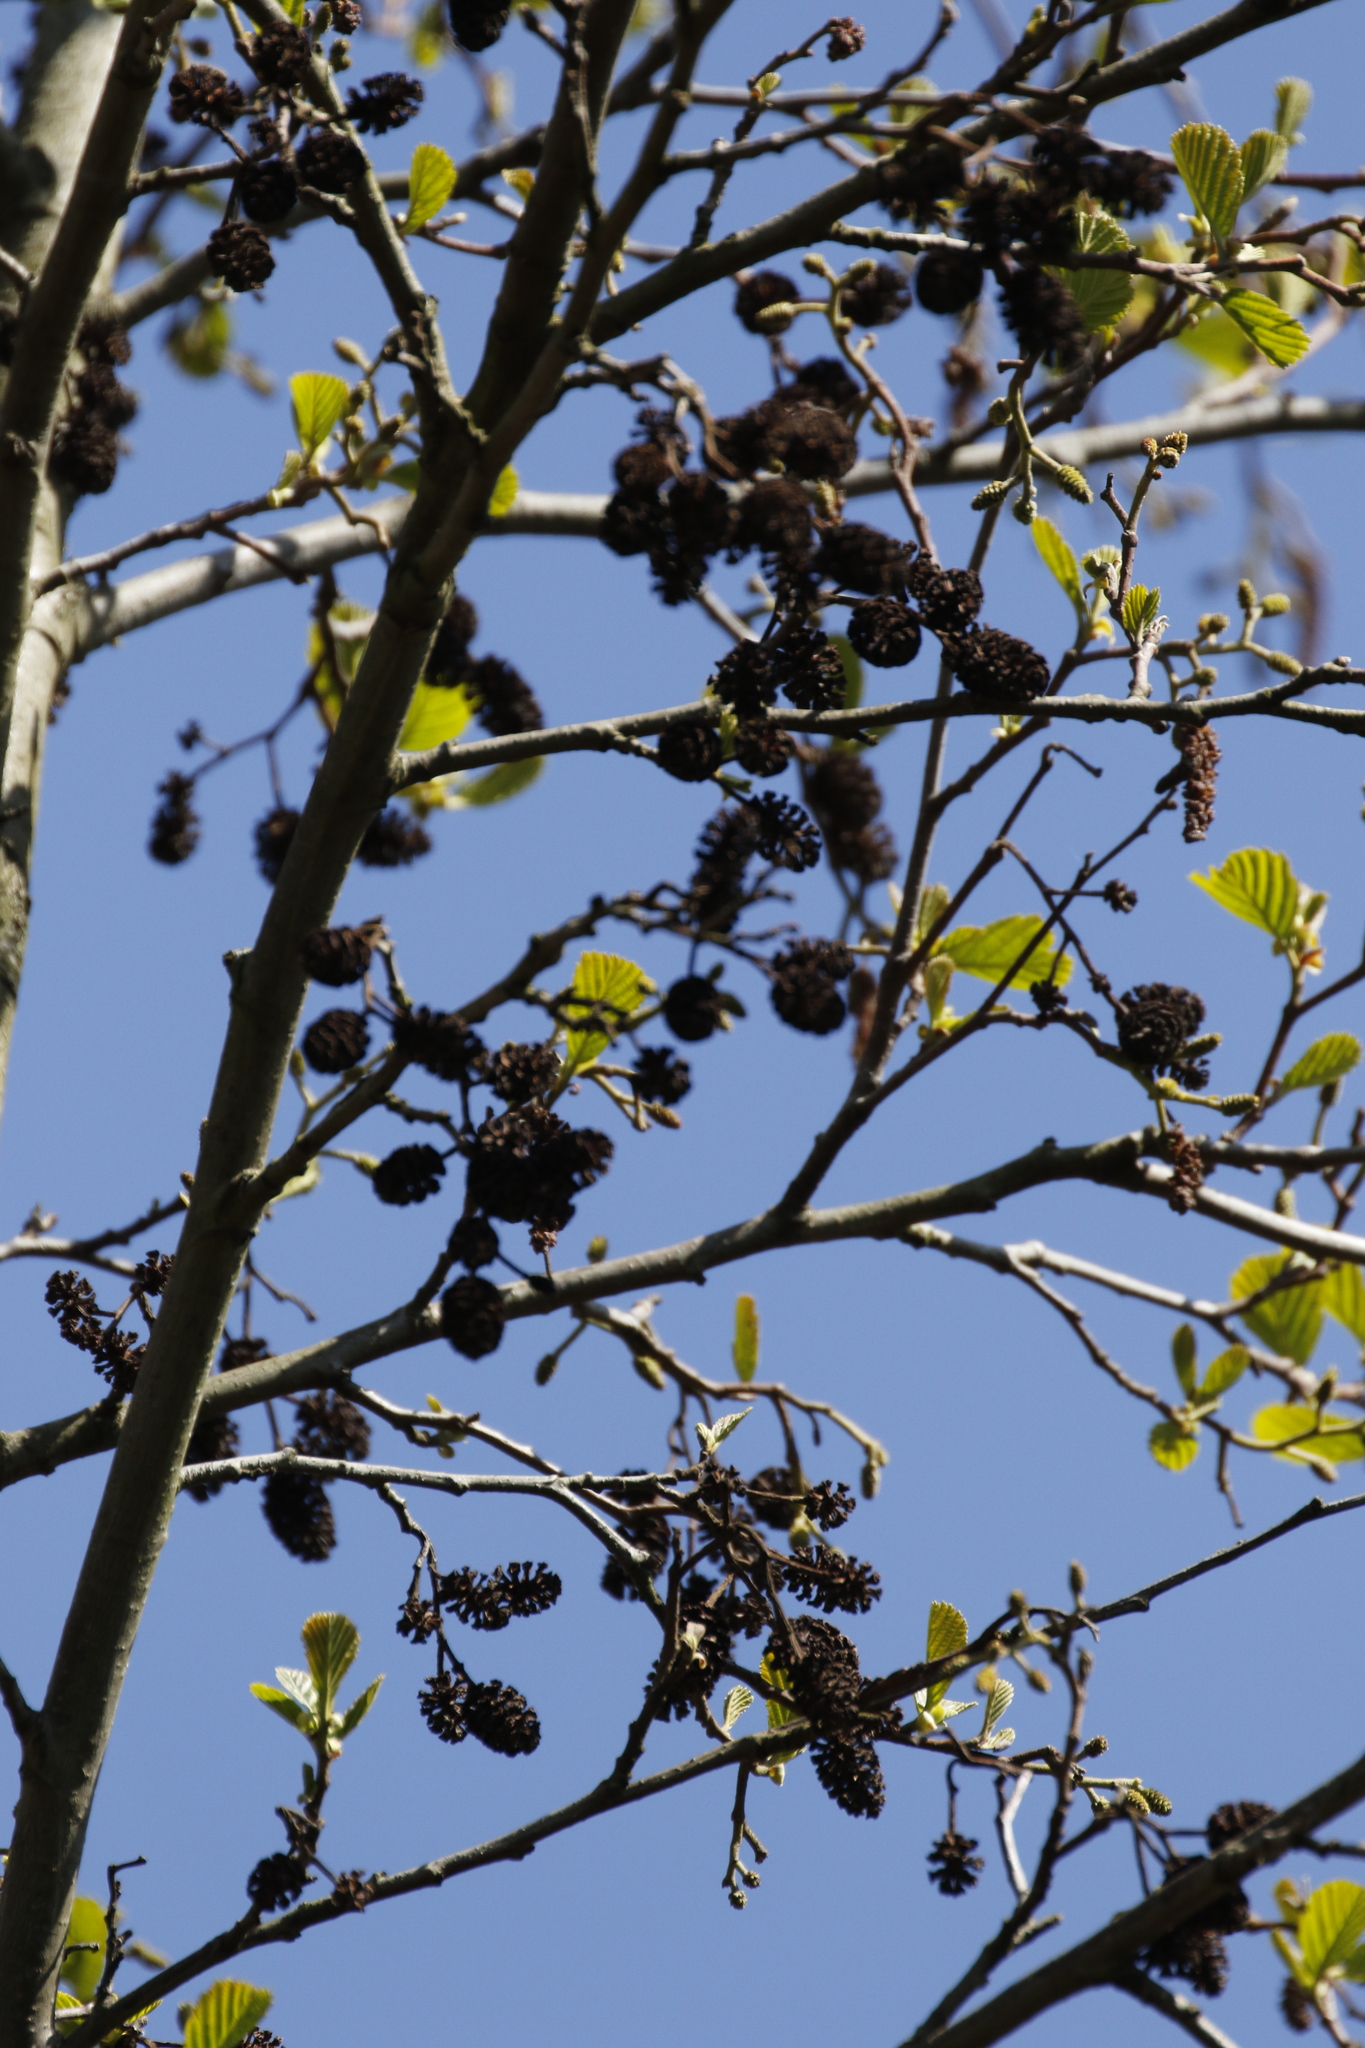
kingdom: Plantae
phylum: Tracheophyta
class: Magnoliopsida
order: Fagales
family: Betulaceae
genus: Alnus
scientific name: Alnus glutinosa
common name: Black alder
